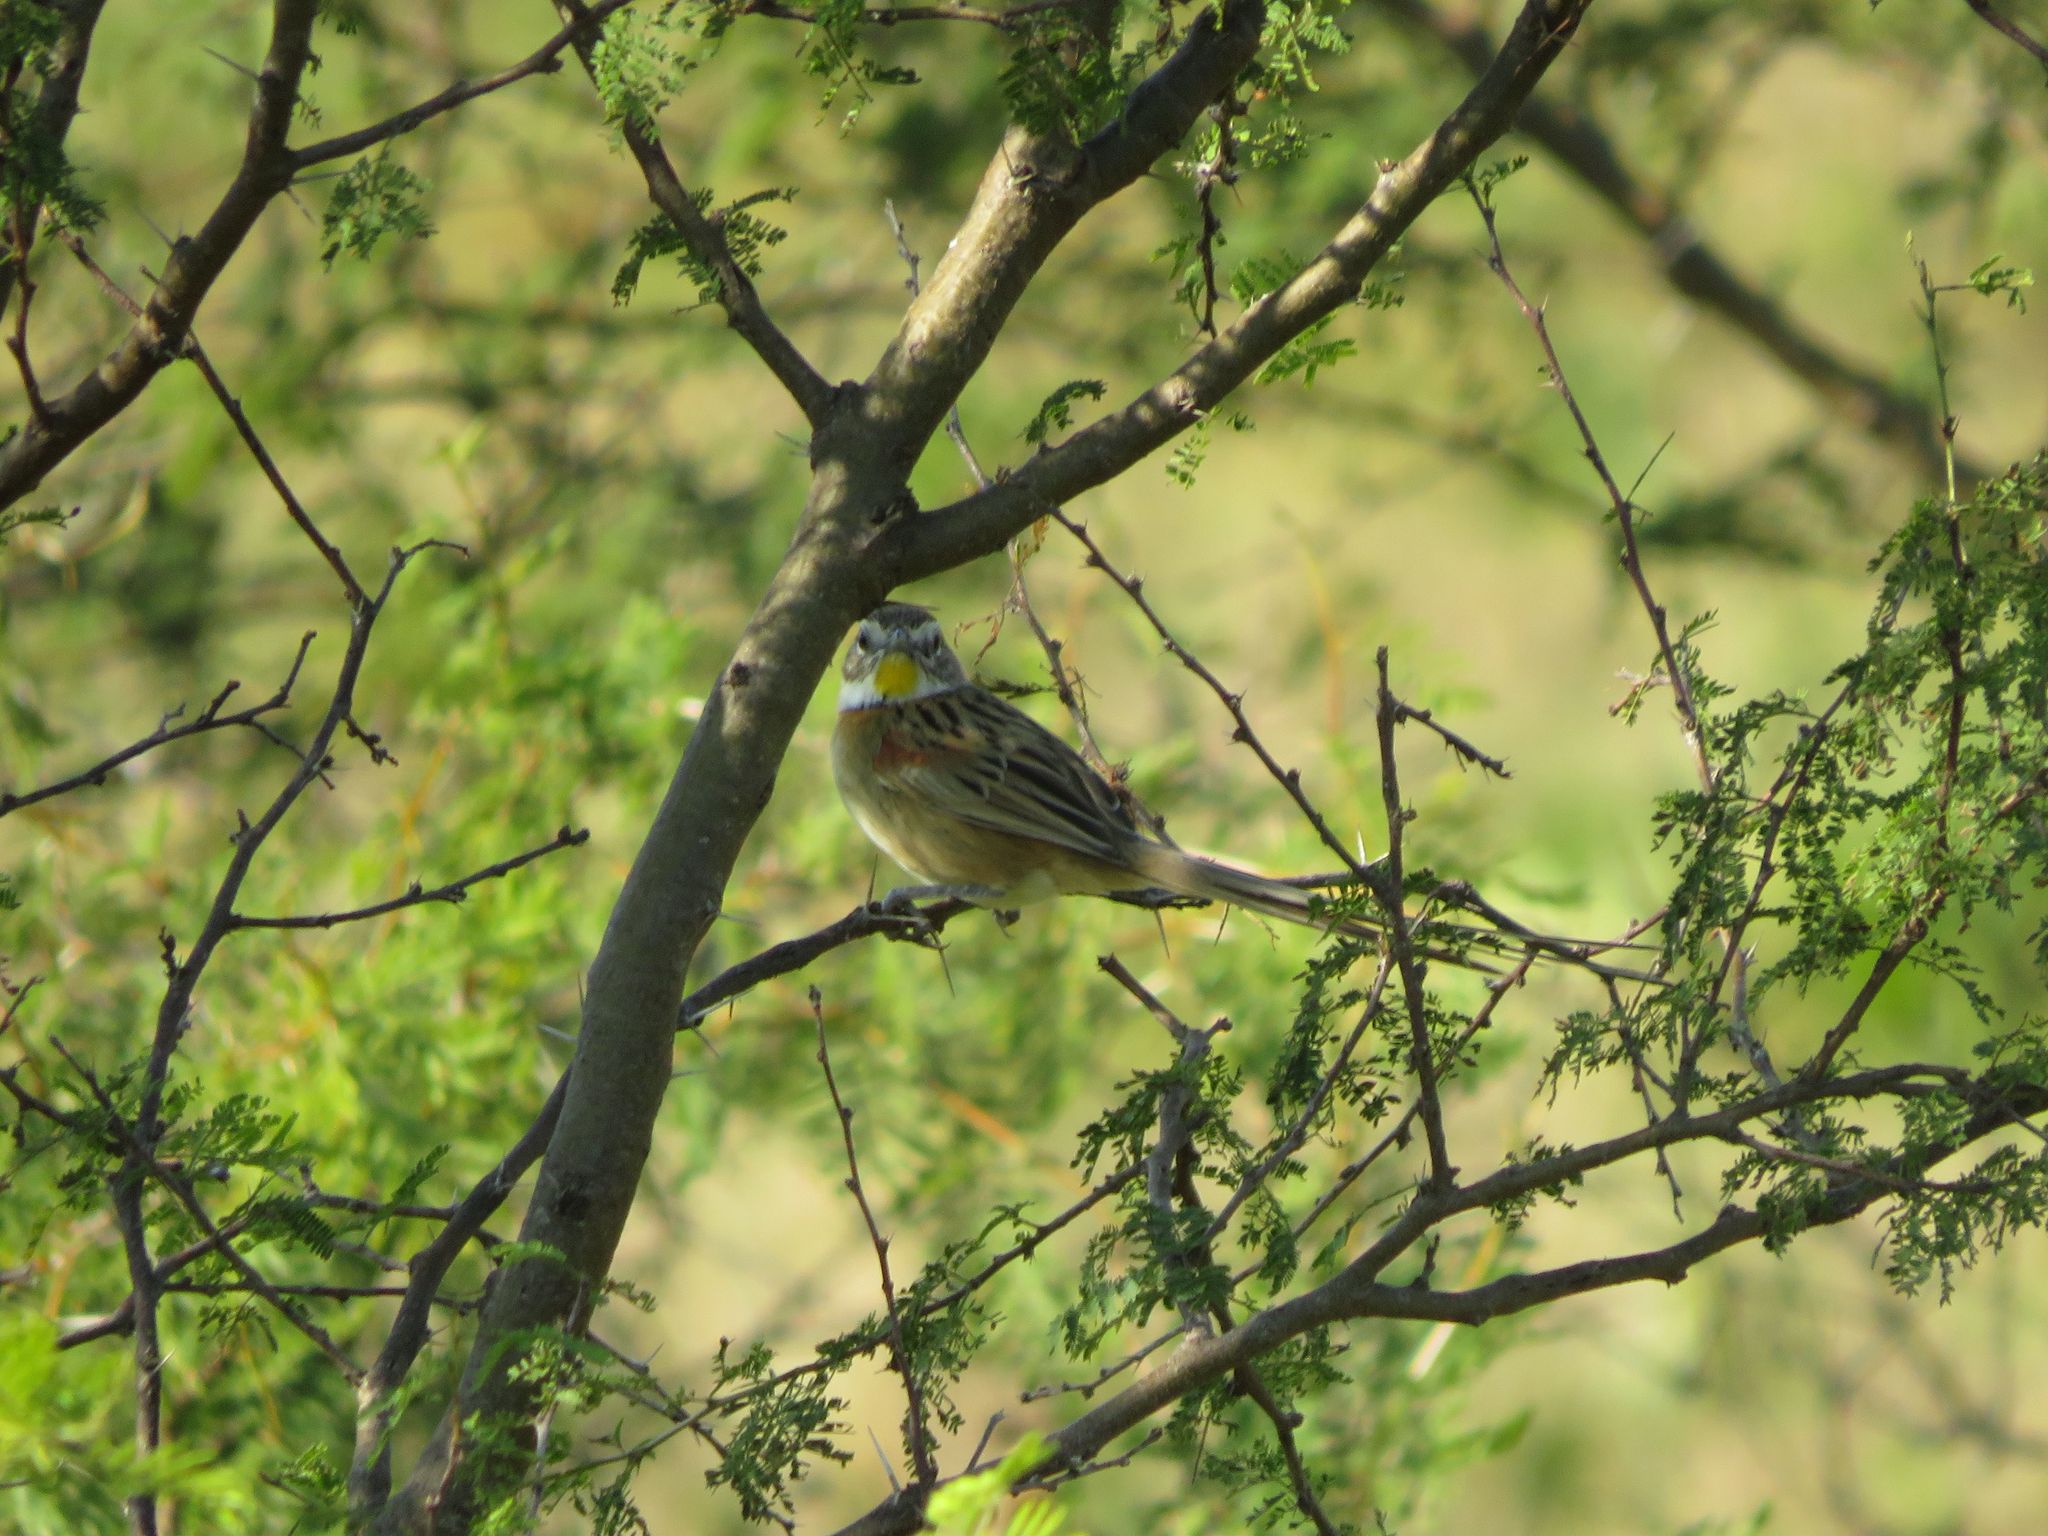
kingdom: Animalia
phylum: Chordata
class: Aves
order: Passeriformes
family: Furnariidae
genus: Schoeniophylax
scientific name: Schoeniophylax phryganophilus
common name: Chotoy spinetail
